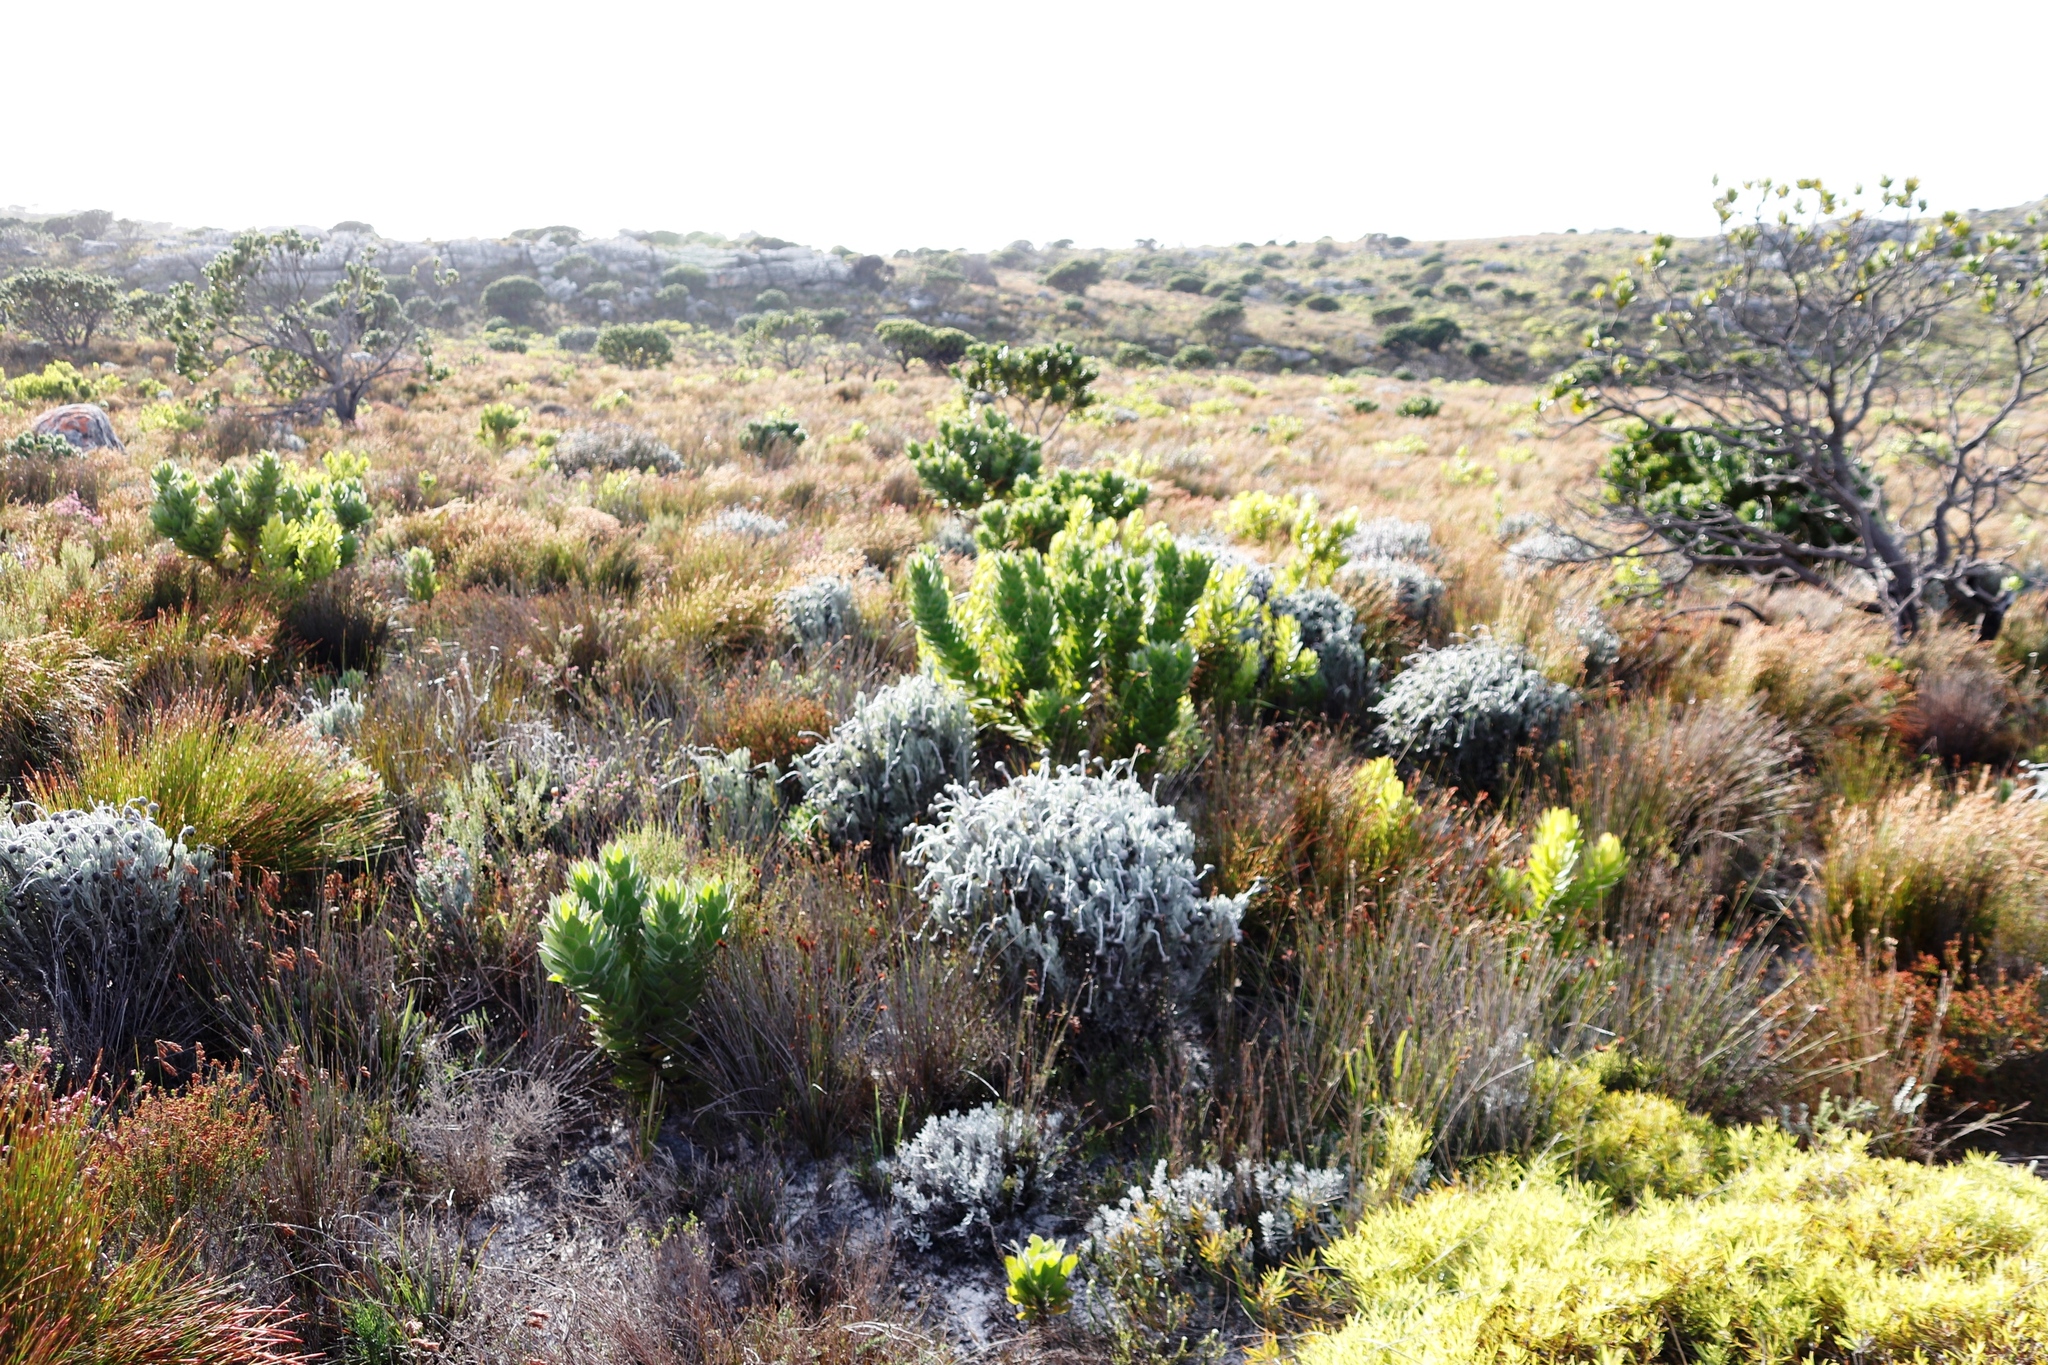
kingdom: Plantae
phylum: Tracheophyta
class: Magnoliopsida
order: Asterales
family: Asteraceae
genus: Syncarpha
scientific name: Syncarpha vestita
